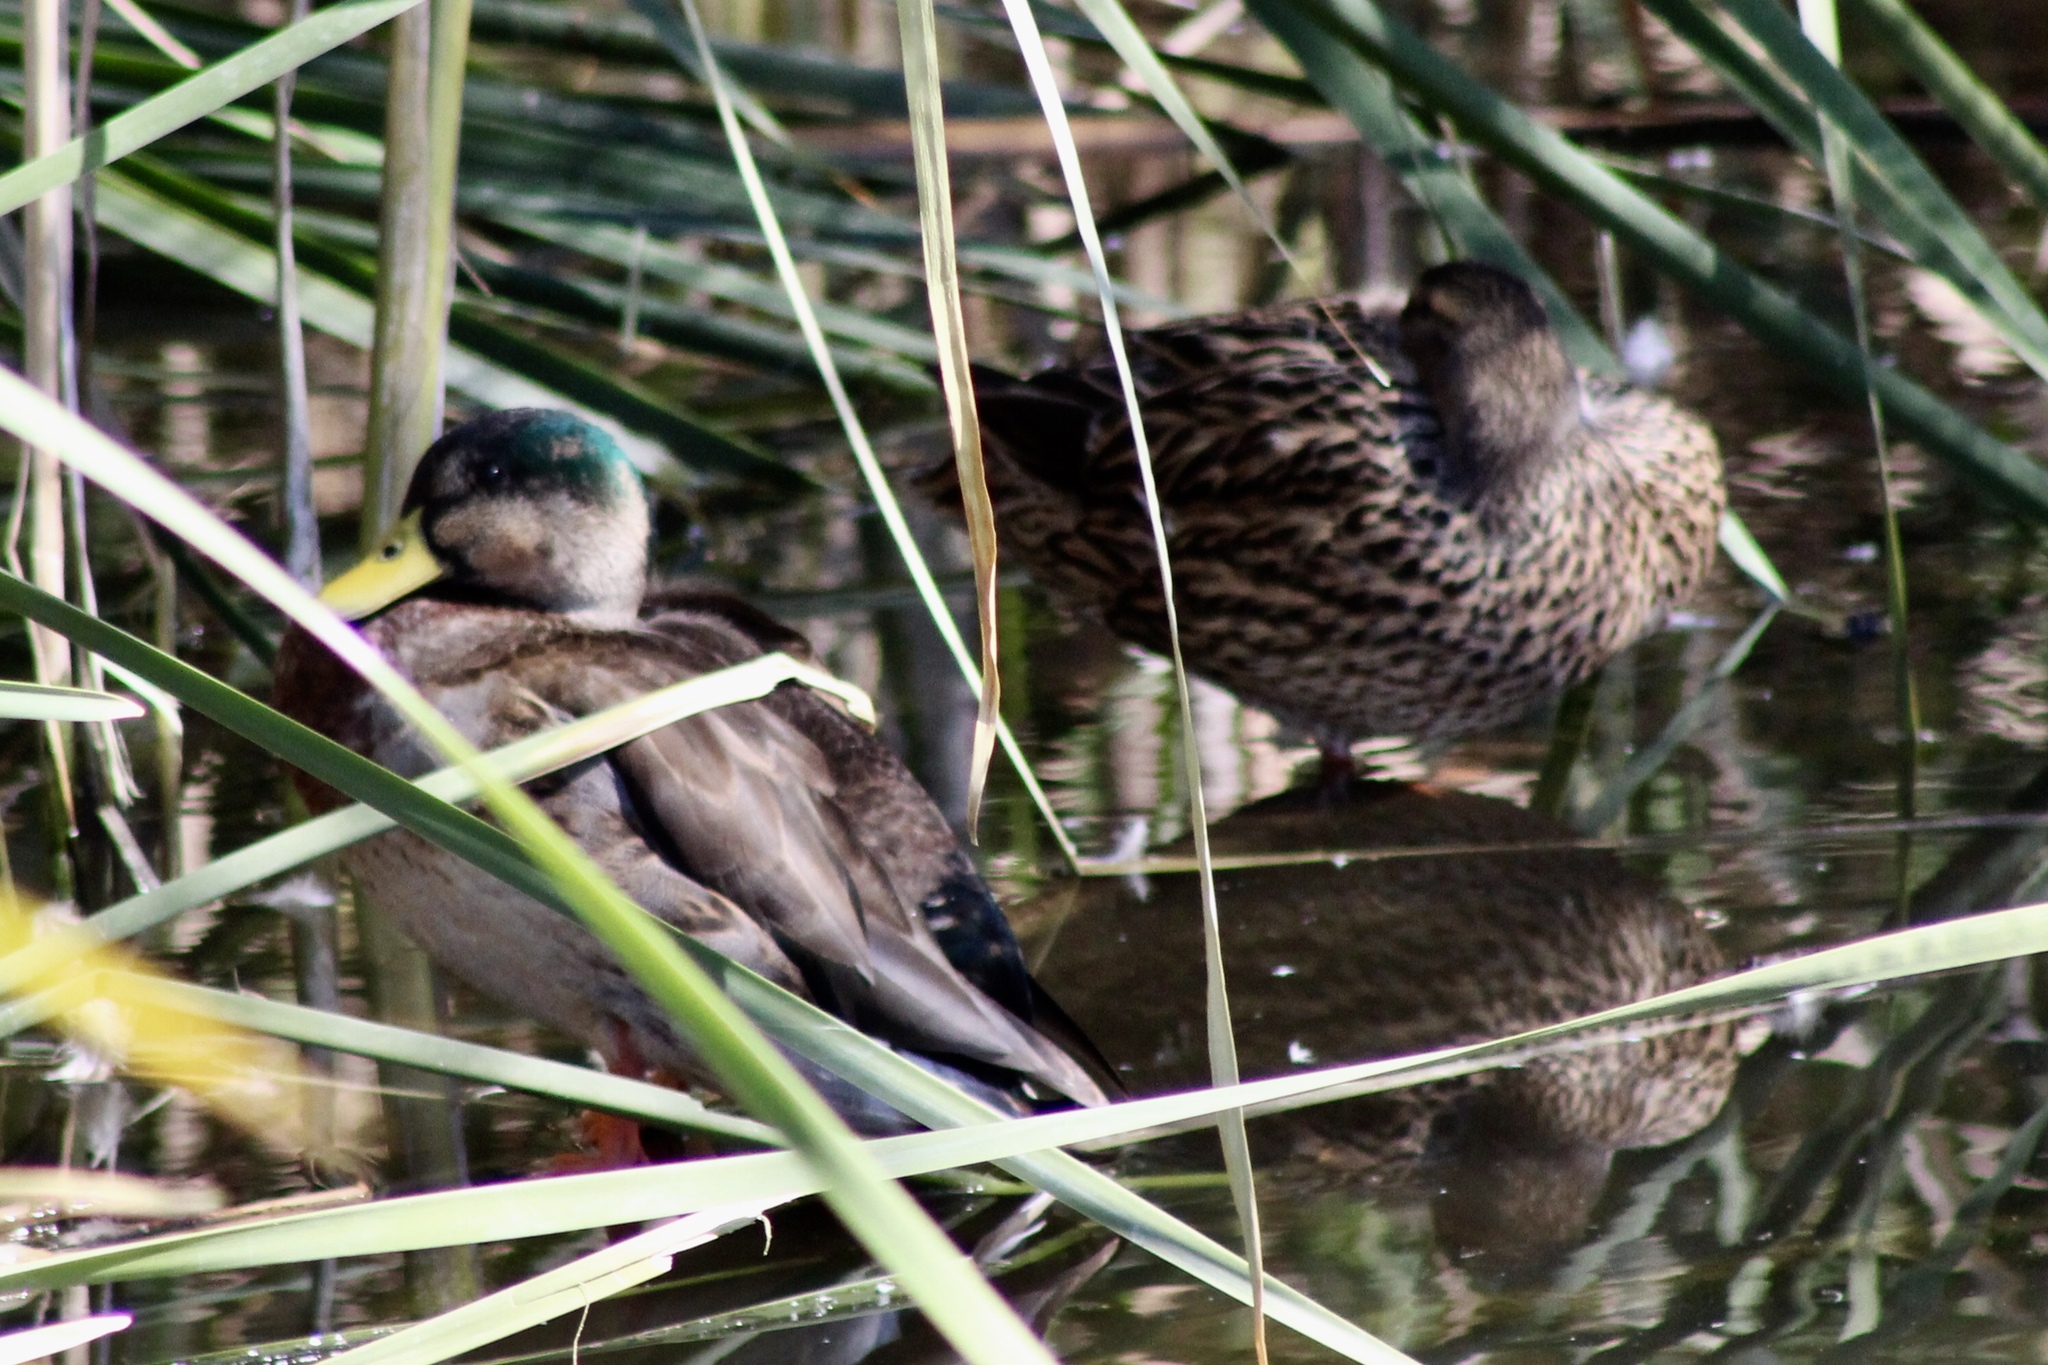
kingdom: Animalia
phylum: Chordata
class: Aves
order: Anseriformes
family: Anatidae
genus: Anas
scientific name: Anas
